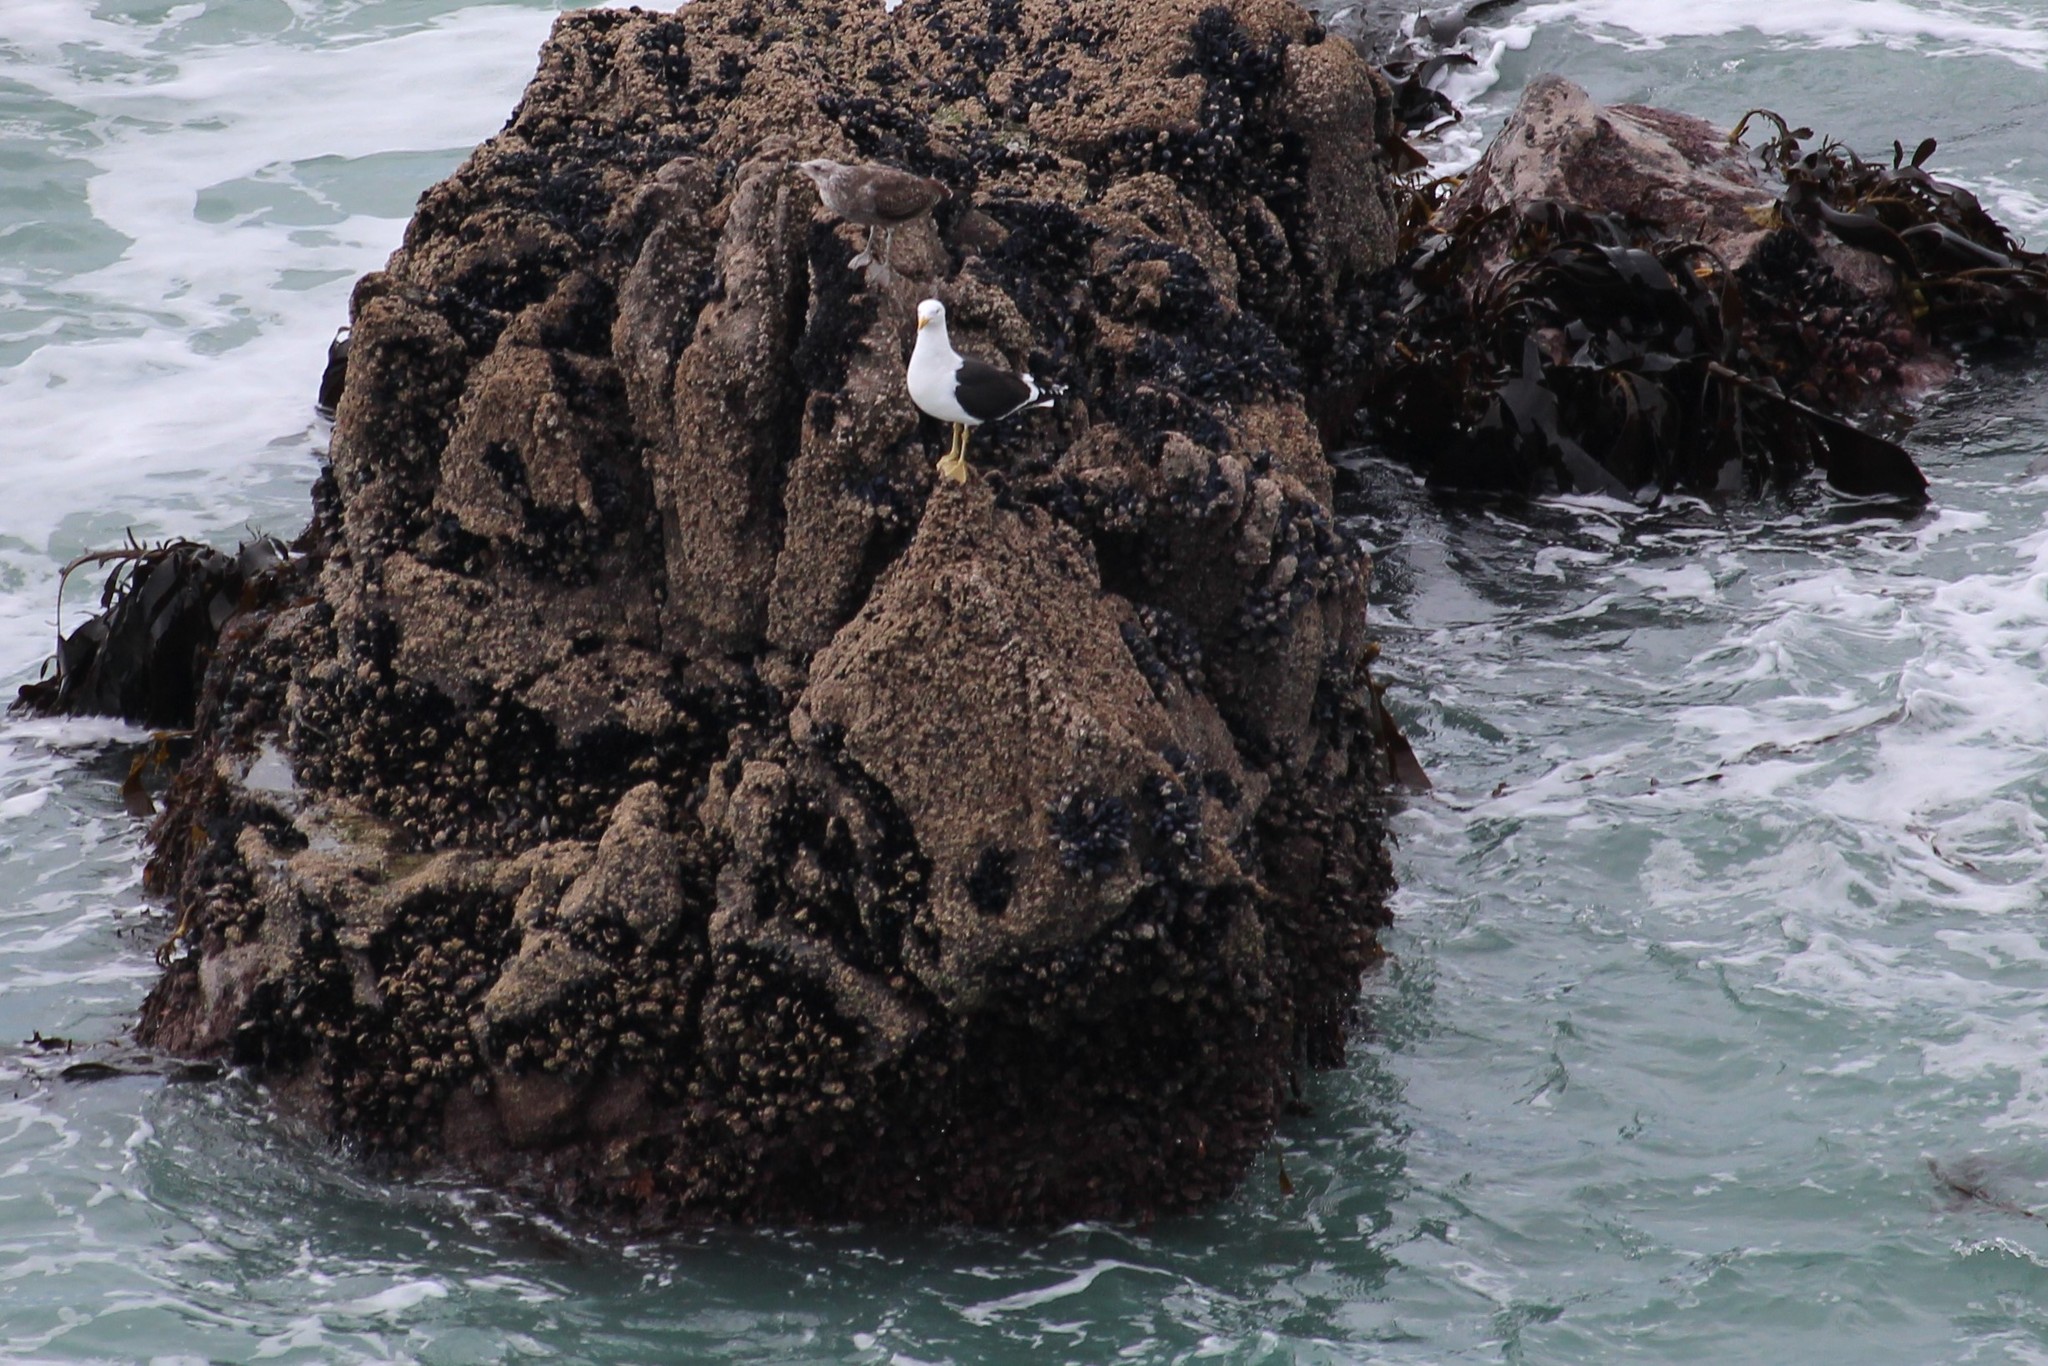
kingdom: Animalia
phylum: Chordata
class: Aves
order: Charadriiformes
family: Laridae
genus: Larus
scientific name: Larus dominicanus
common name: Kelp gull
